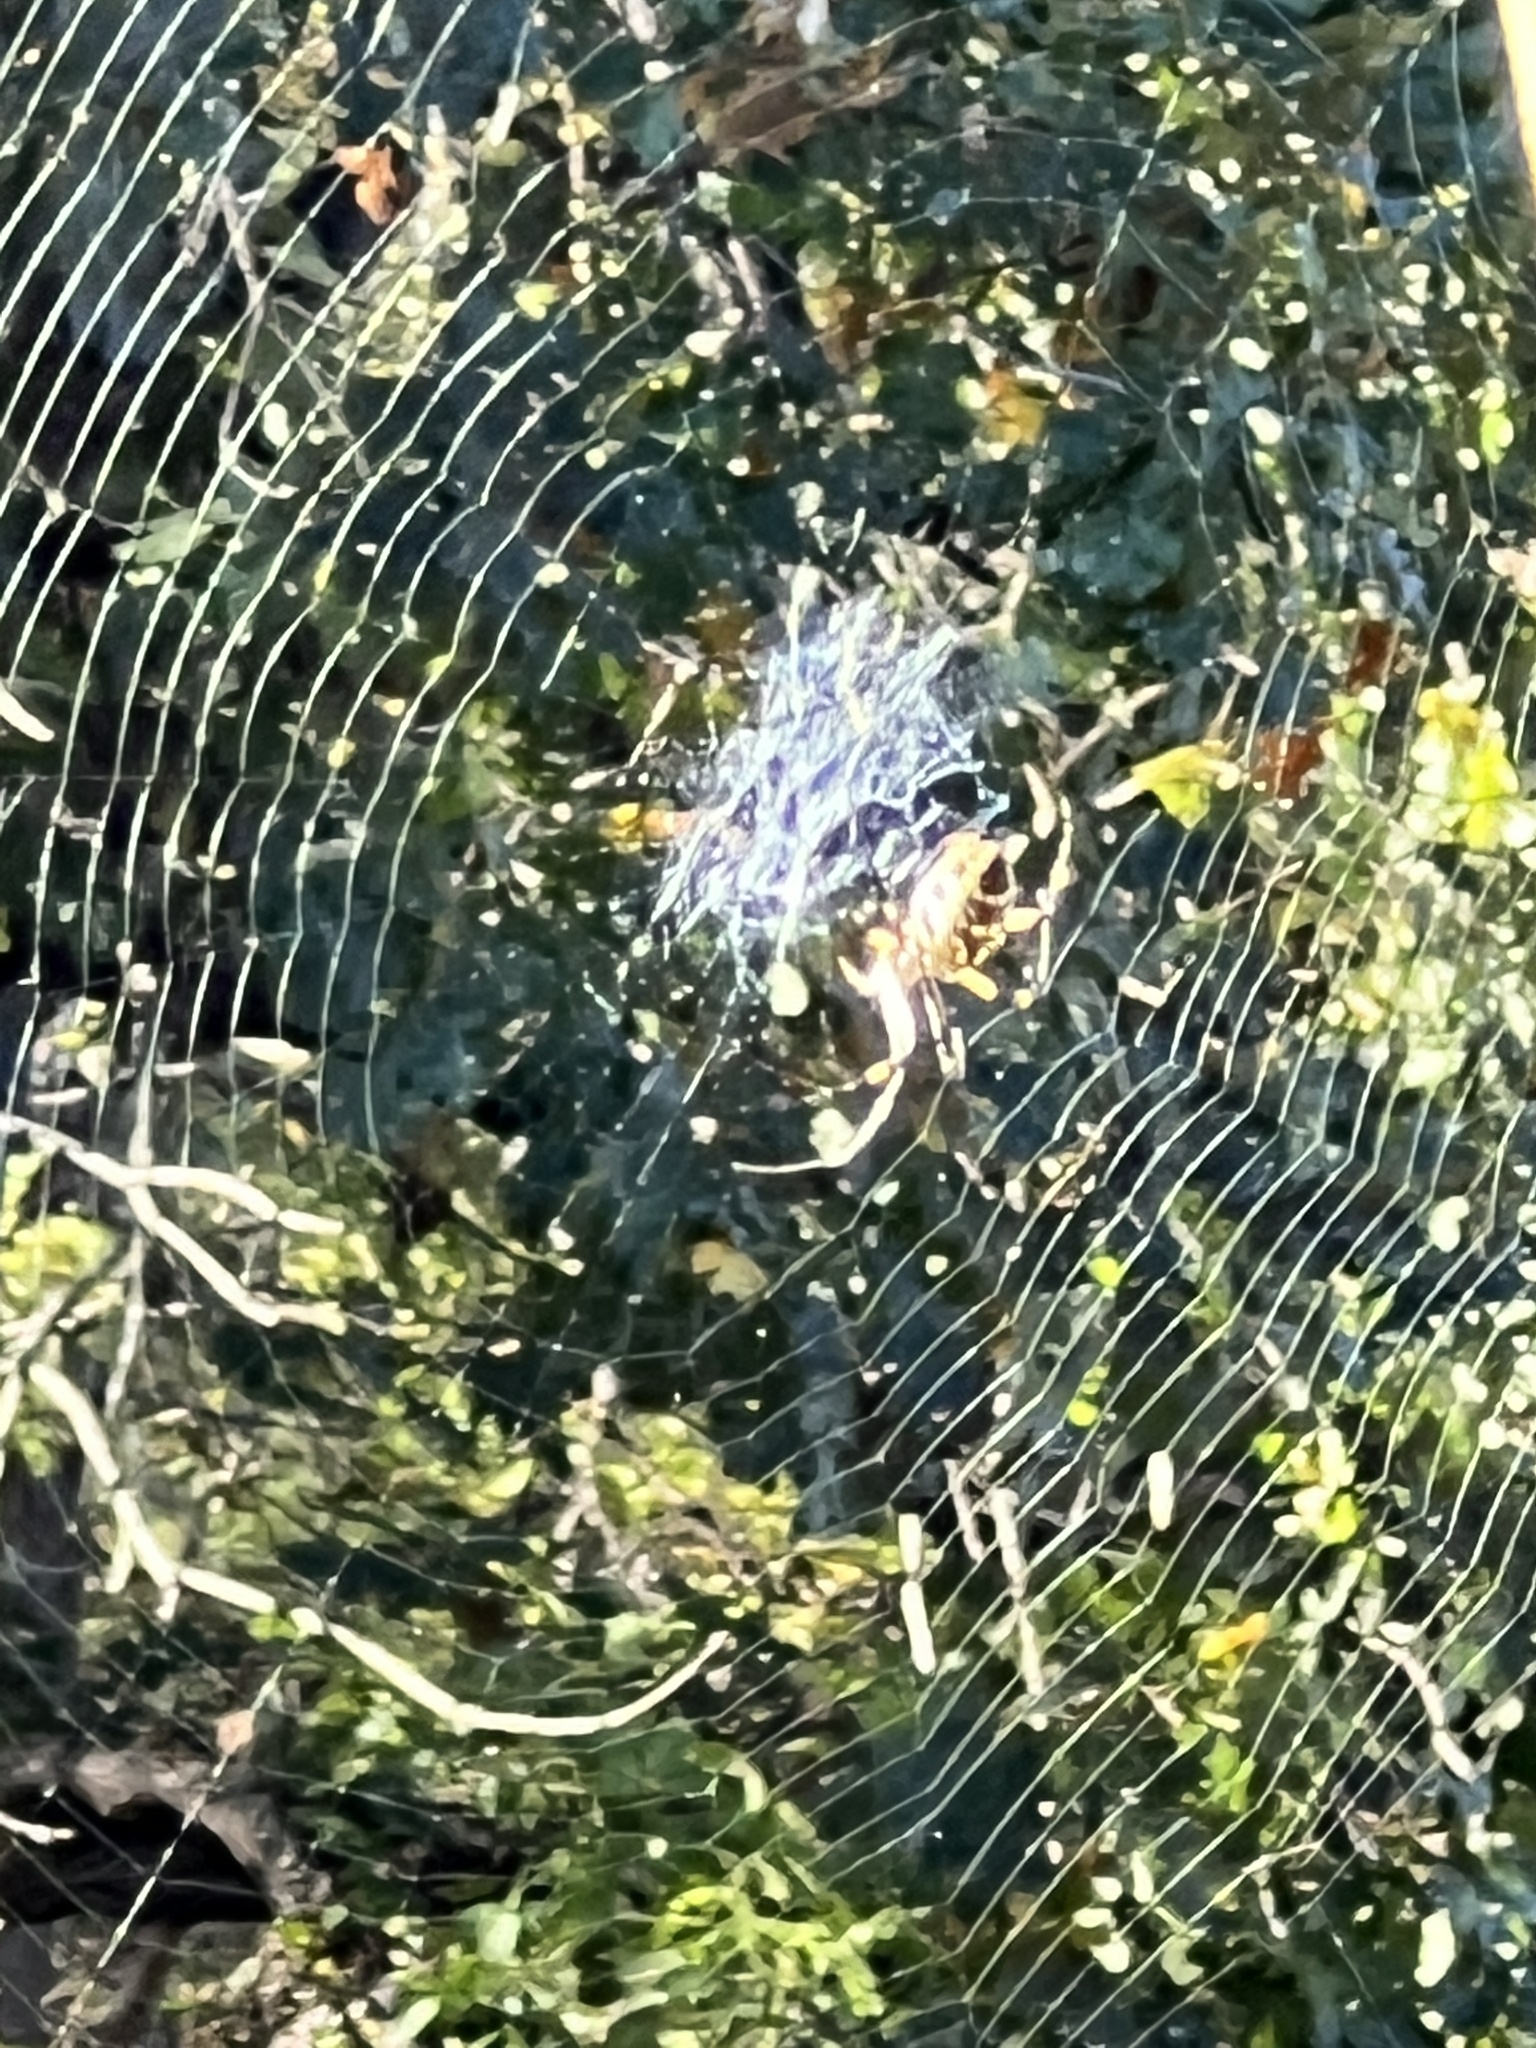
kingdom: Animalia
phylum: Arthropoda
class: Arachnida
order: Araneae
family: Araneidae
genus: Argiope
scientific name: Argiope aurantia
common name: Orb weavers
